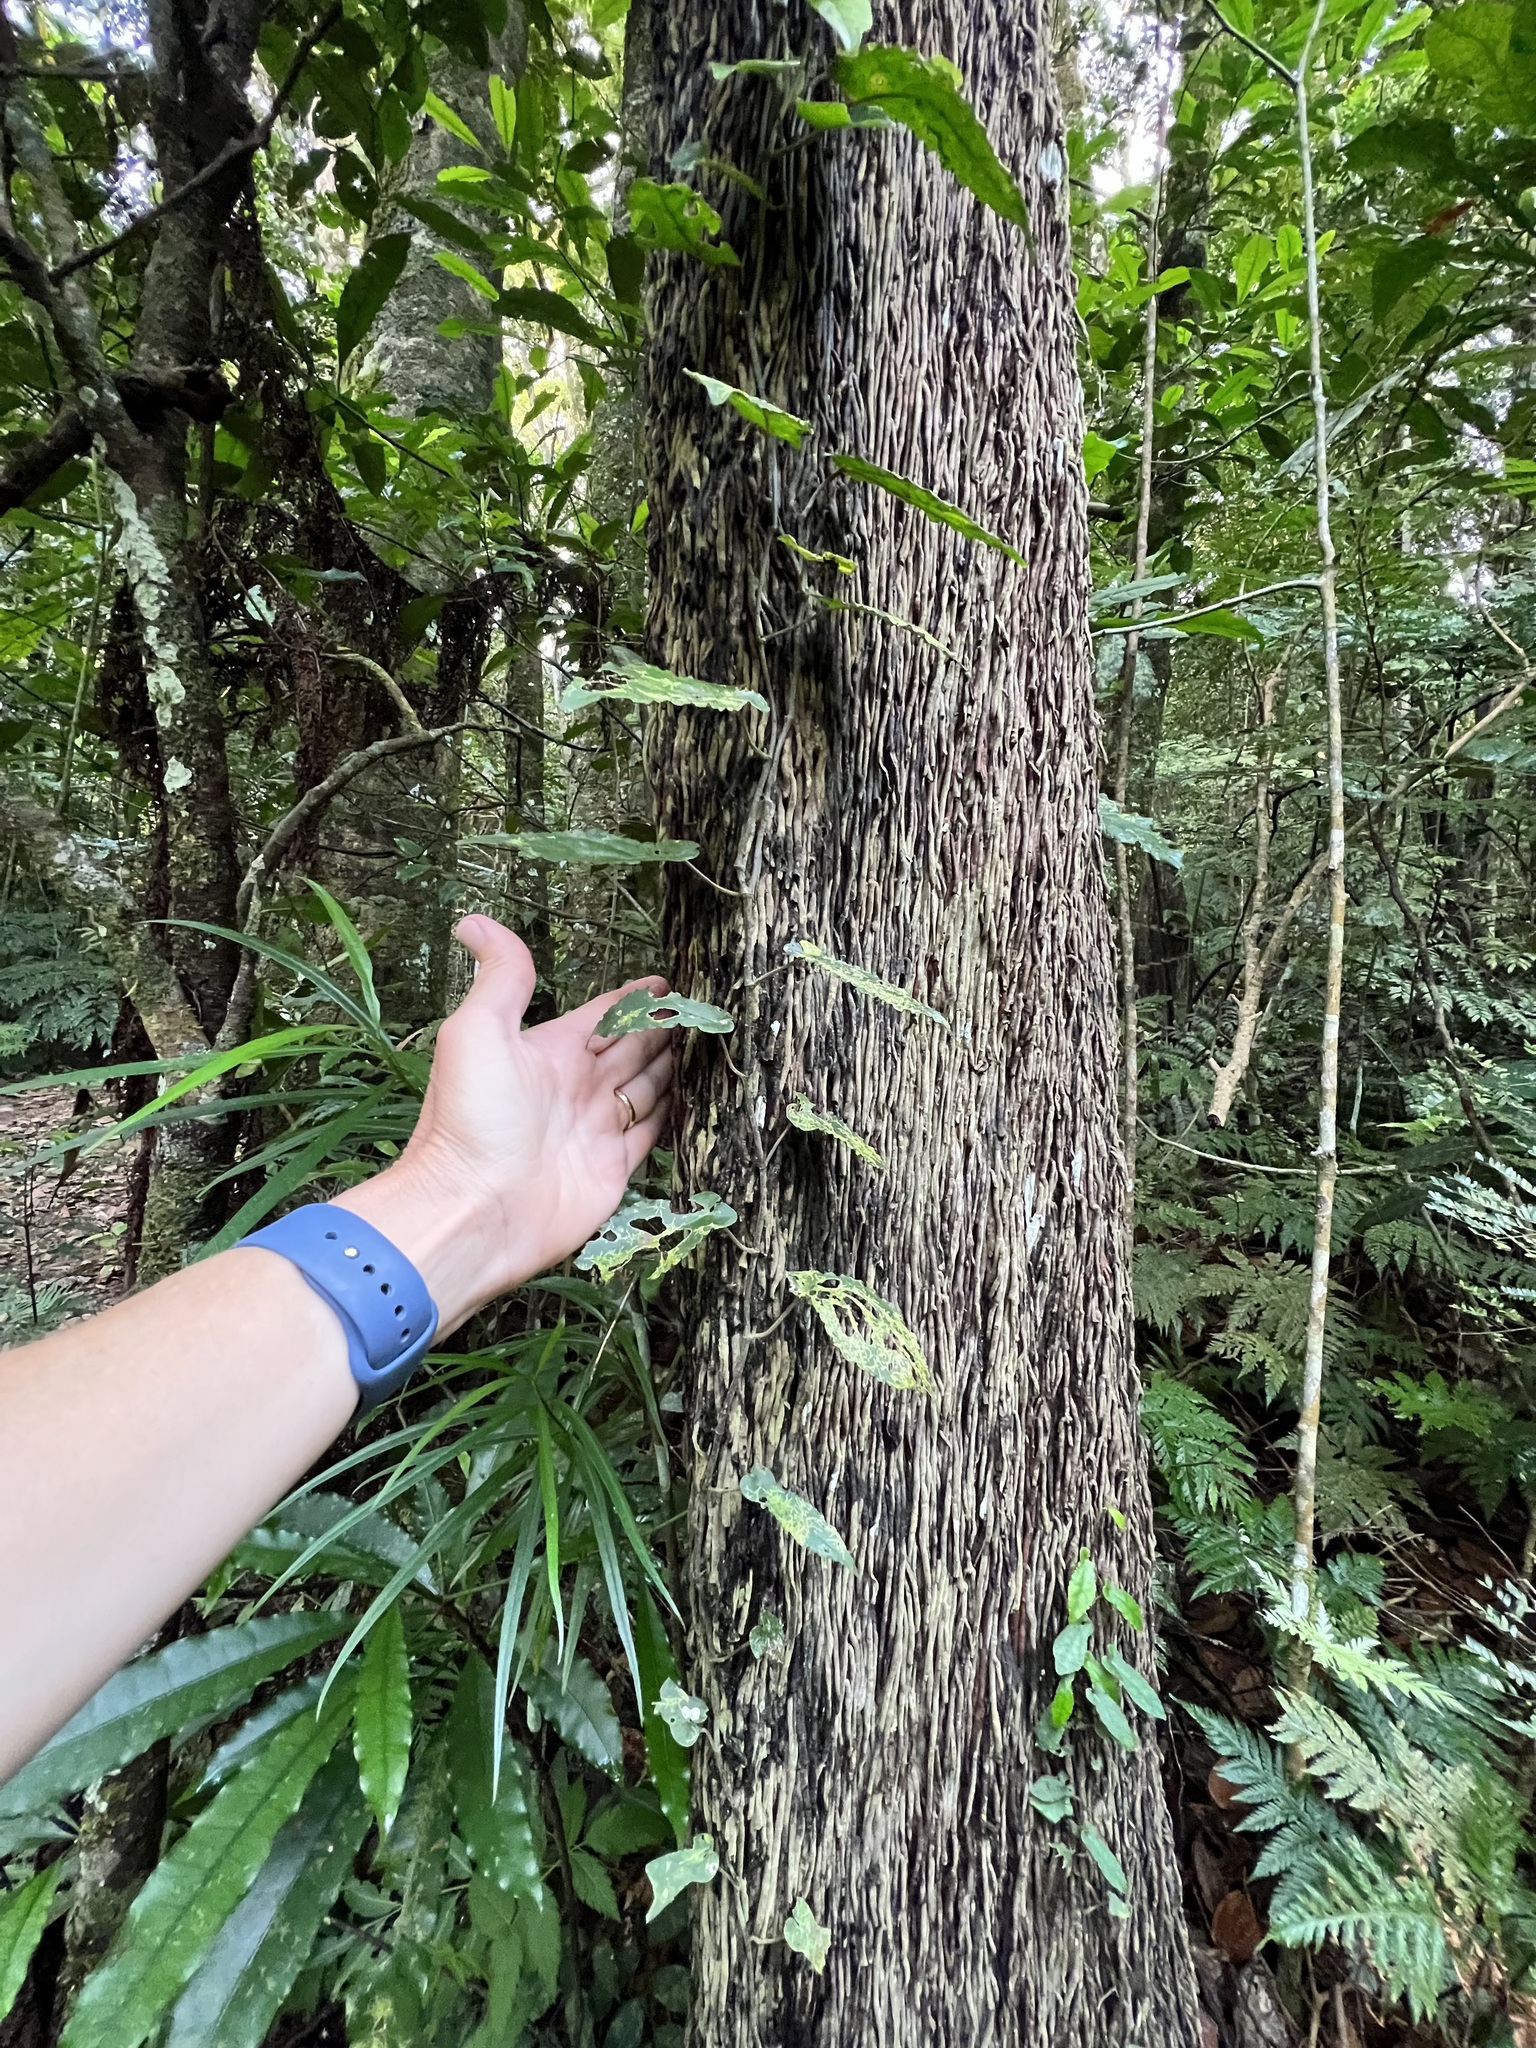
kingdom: Plantae
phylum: Tracheophyta
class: Polypodiopsida
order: Cyatheales
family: Cyatheaceae
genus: Sphaeropteris
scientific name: Sphaeropteris intermedia
